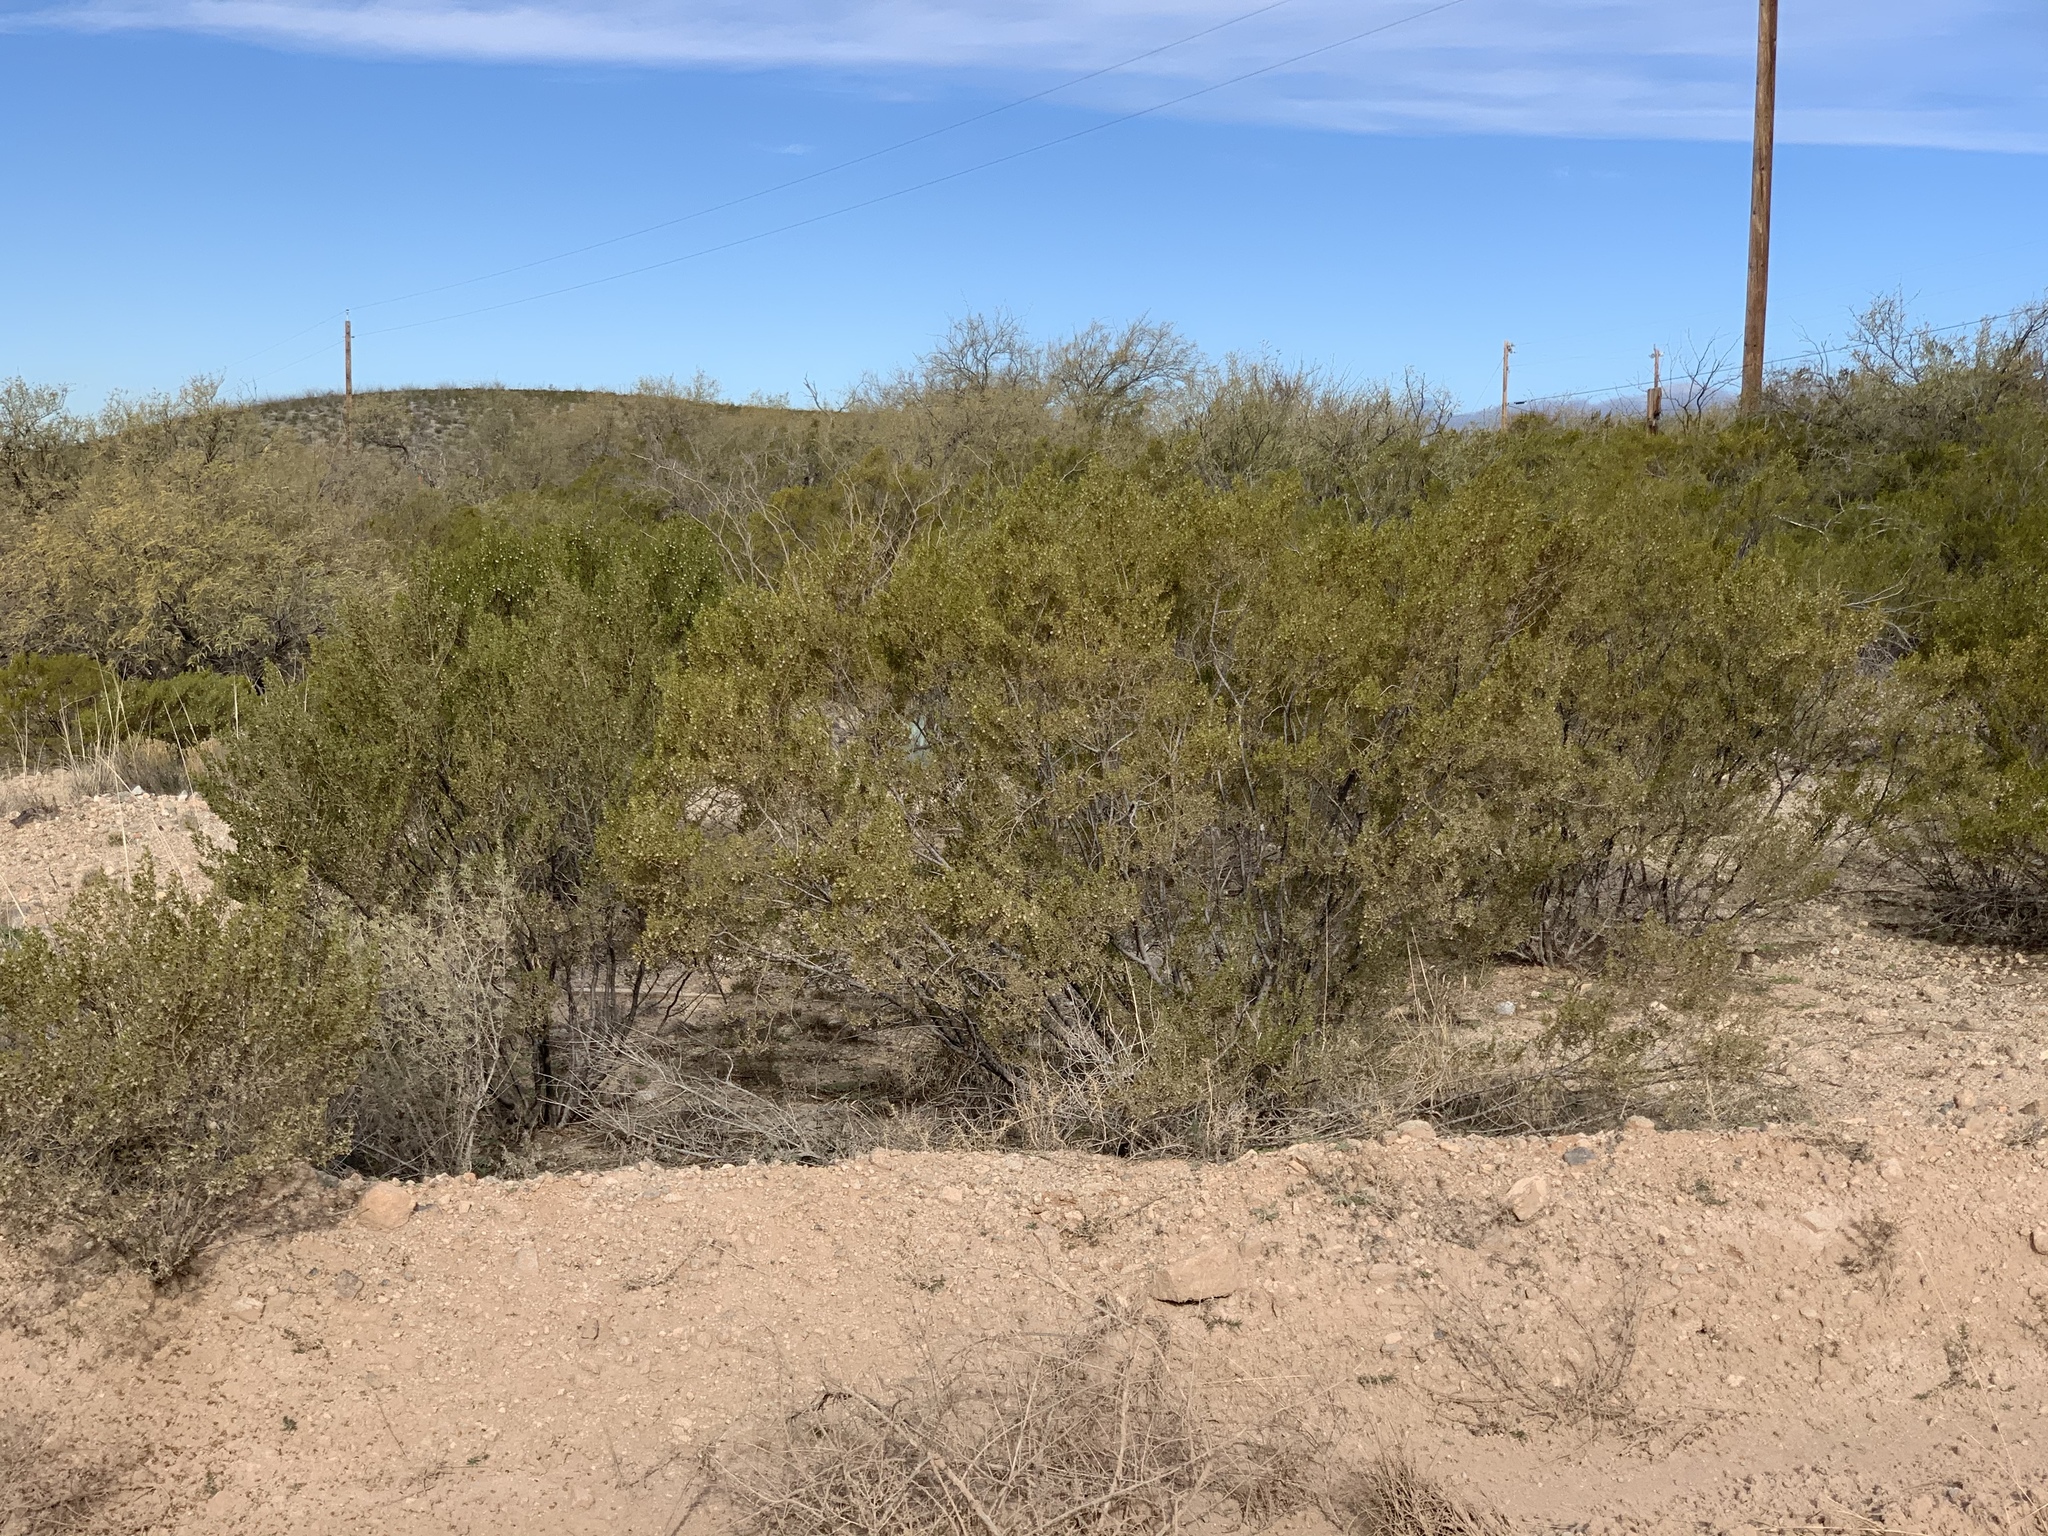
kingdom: Plantae
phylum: Tracheophyta
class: Magnoliopsida
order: Zygophyllales
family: Zygophyllaceae
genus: Larrea
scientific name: Larrea tridentata
